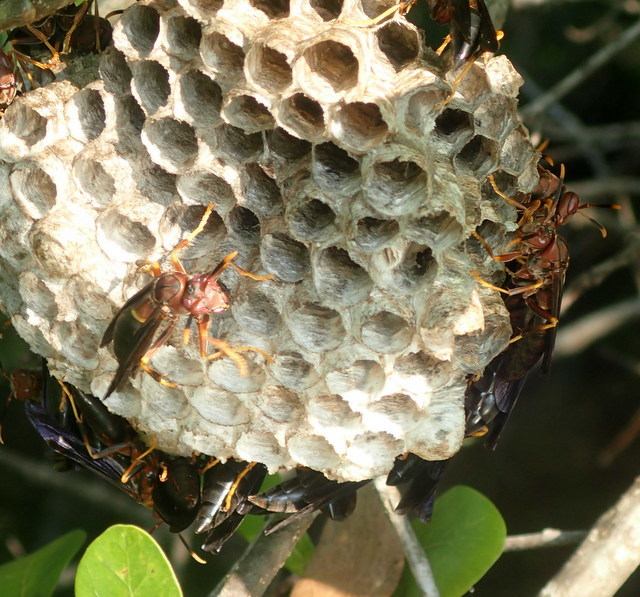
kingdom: Animalia
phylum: Arthropoda
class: Insecta
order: Hymenoptera
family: Eumenidae
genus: Polistes
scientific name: Polistes annularis
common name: Ringed paper wasp
